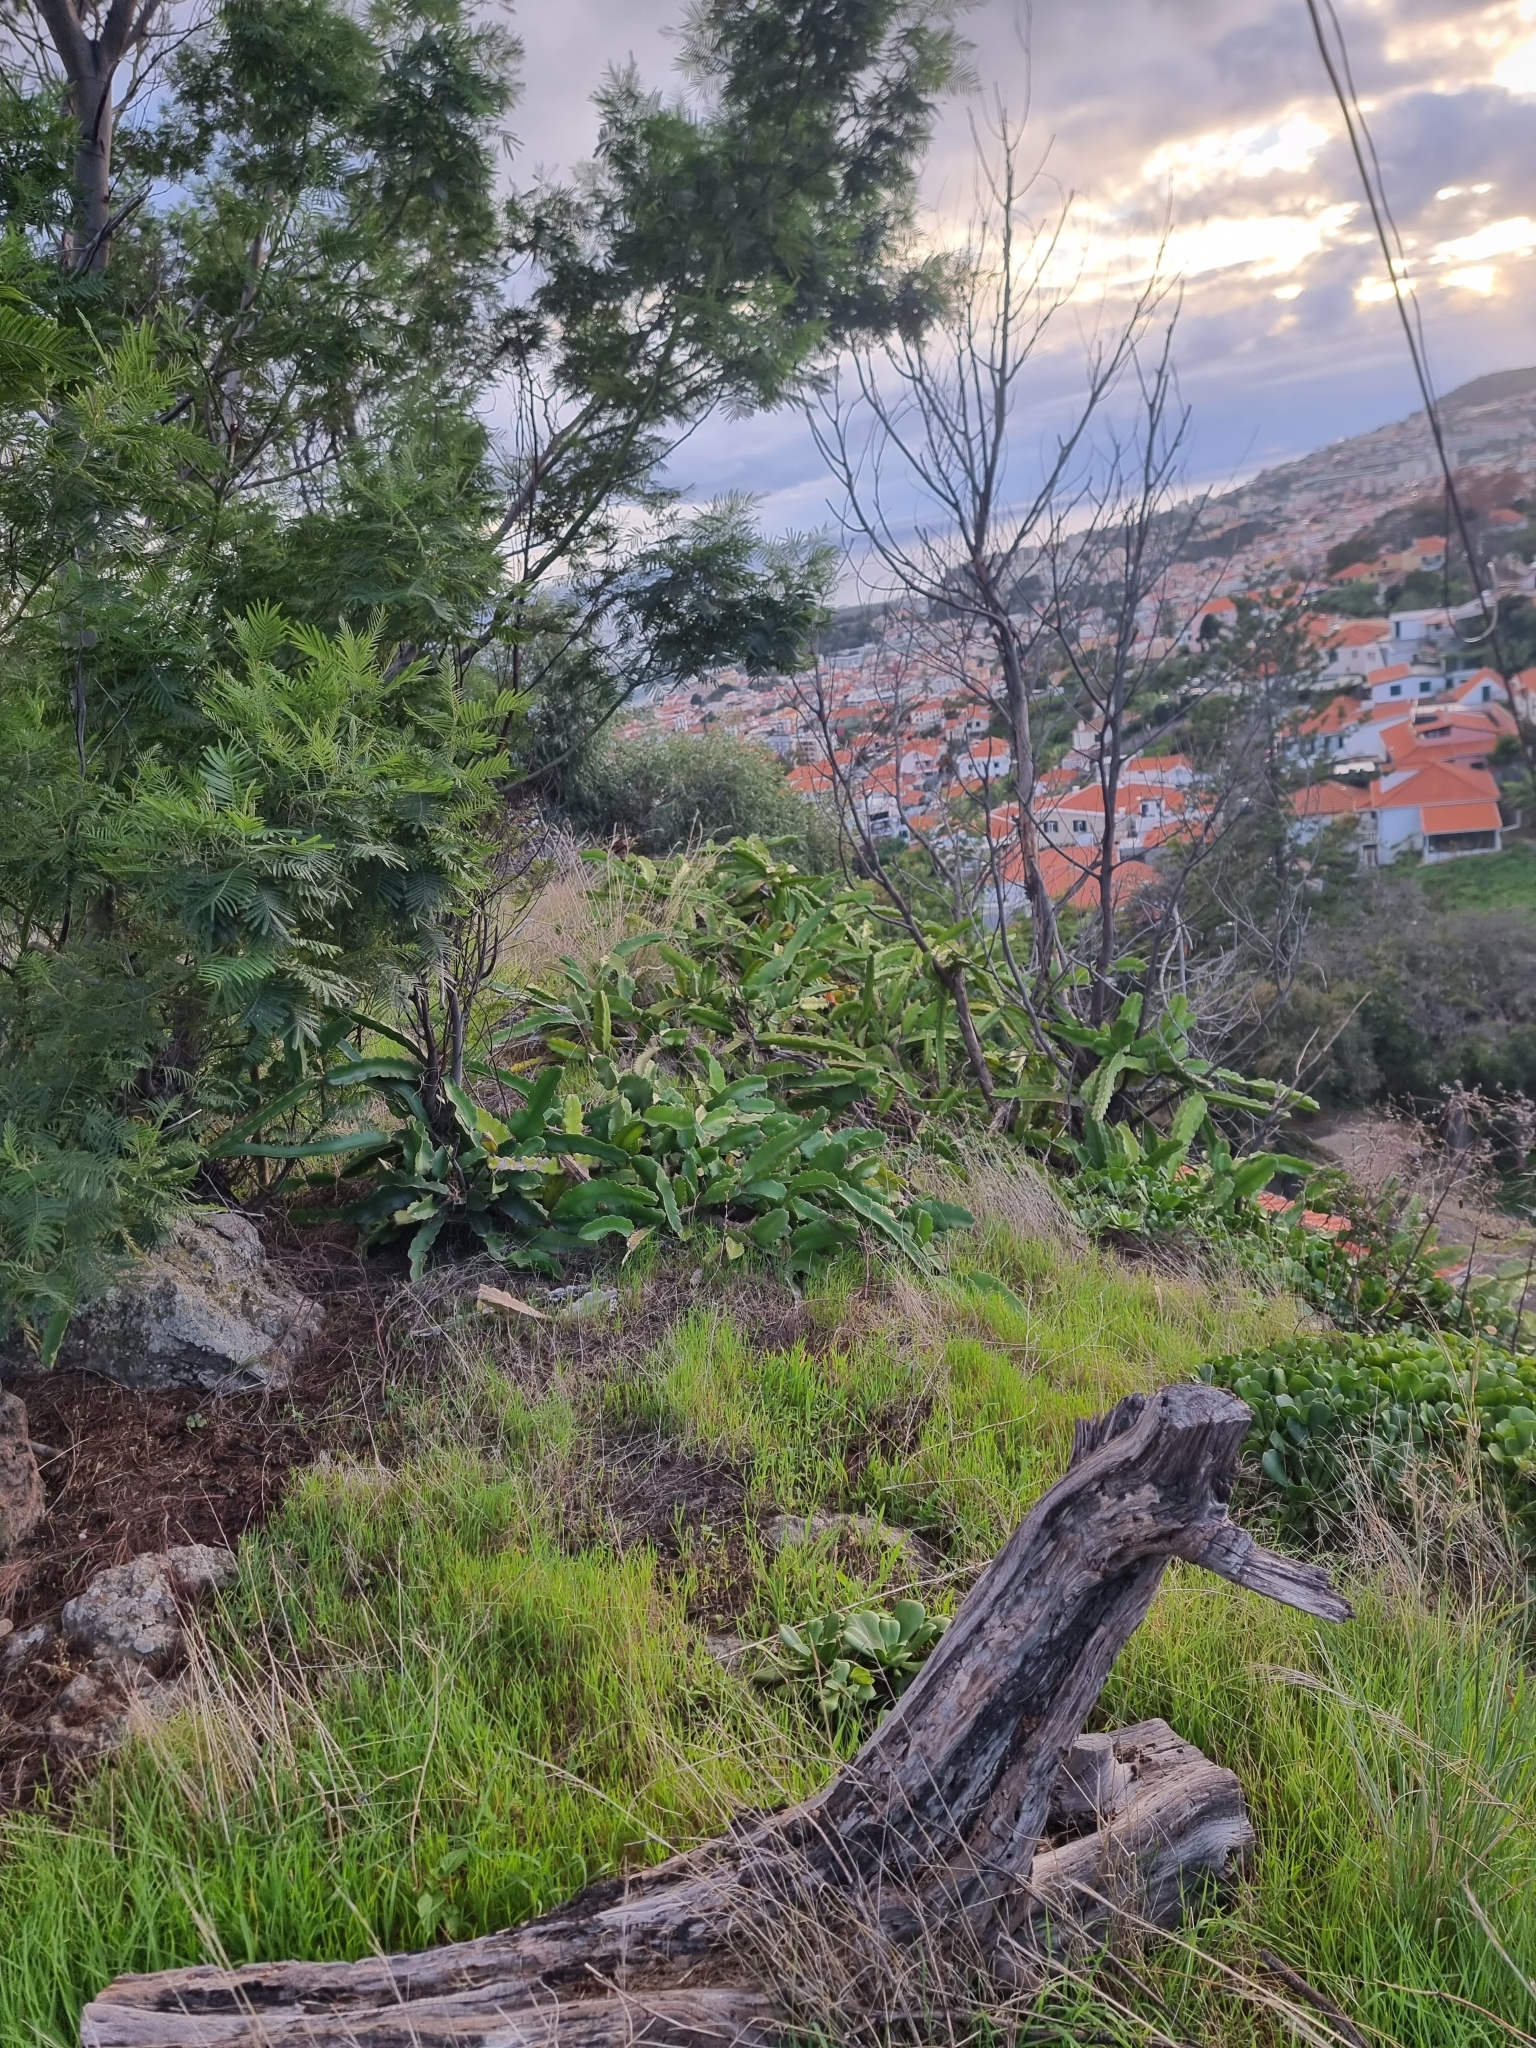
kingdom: Plantae
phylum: Tracheophyta
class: Magnoliopsida
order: Caryophyllales
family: Cactaceae
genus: Selenicereus
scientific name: Selenicereus undatus
